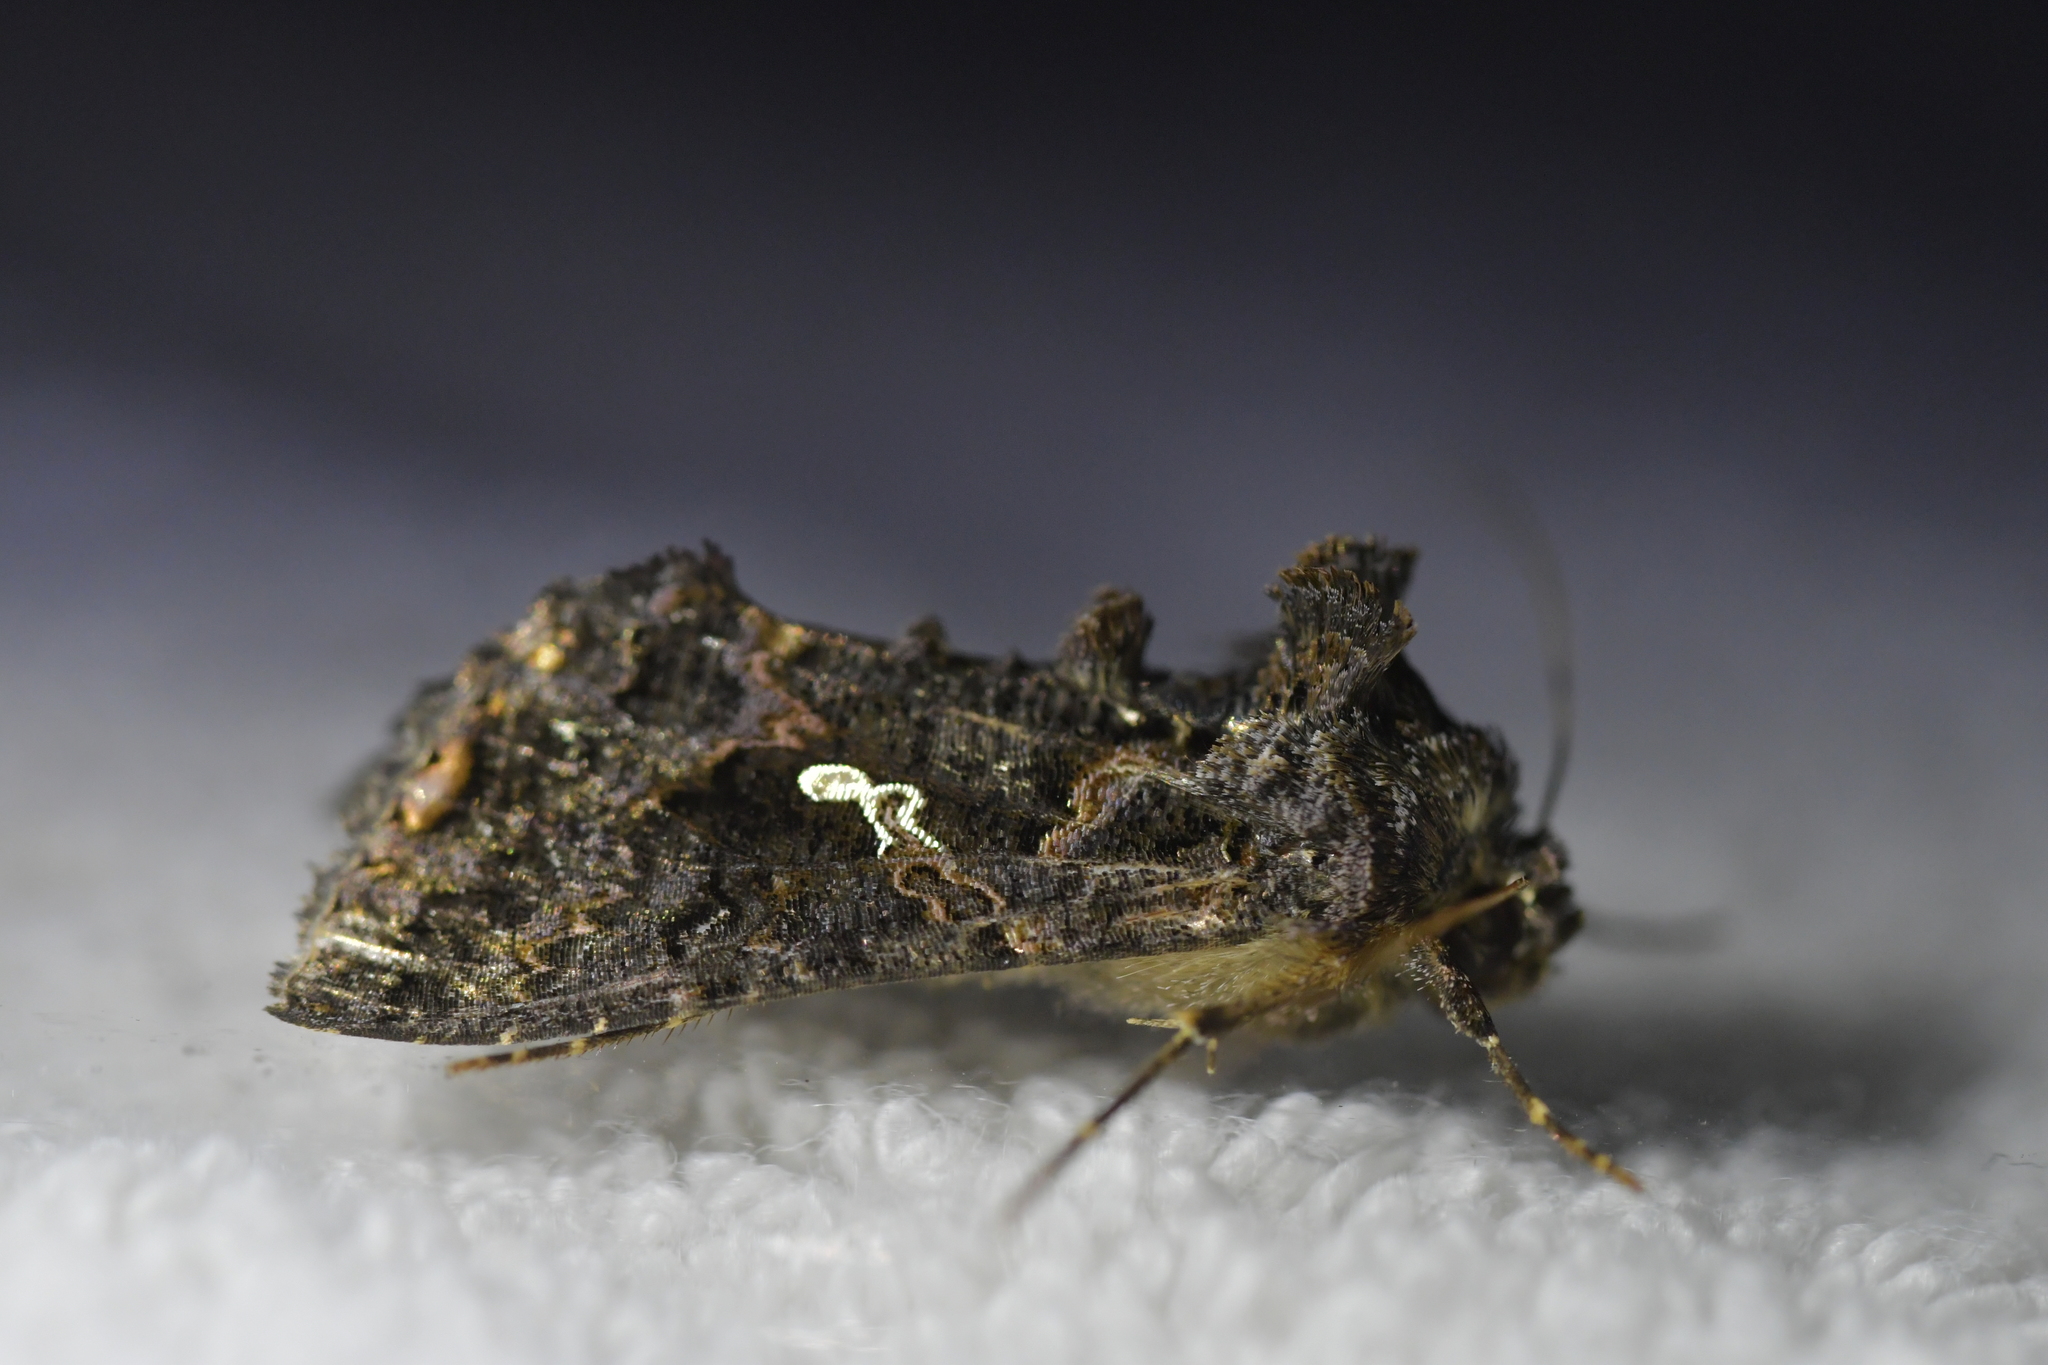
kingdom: Animalia
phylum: Arthropoda
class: Insecta
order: Lepidoptera
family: Noctuidae
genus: Ctenoplusia
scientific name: Ctenoplusia limbirena
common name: Scar bank gem
